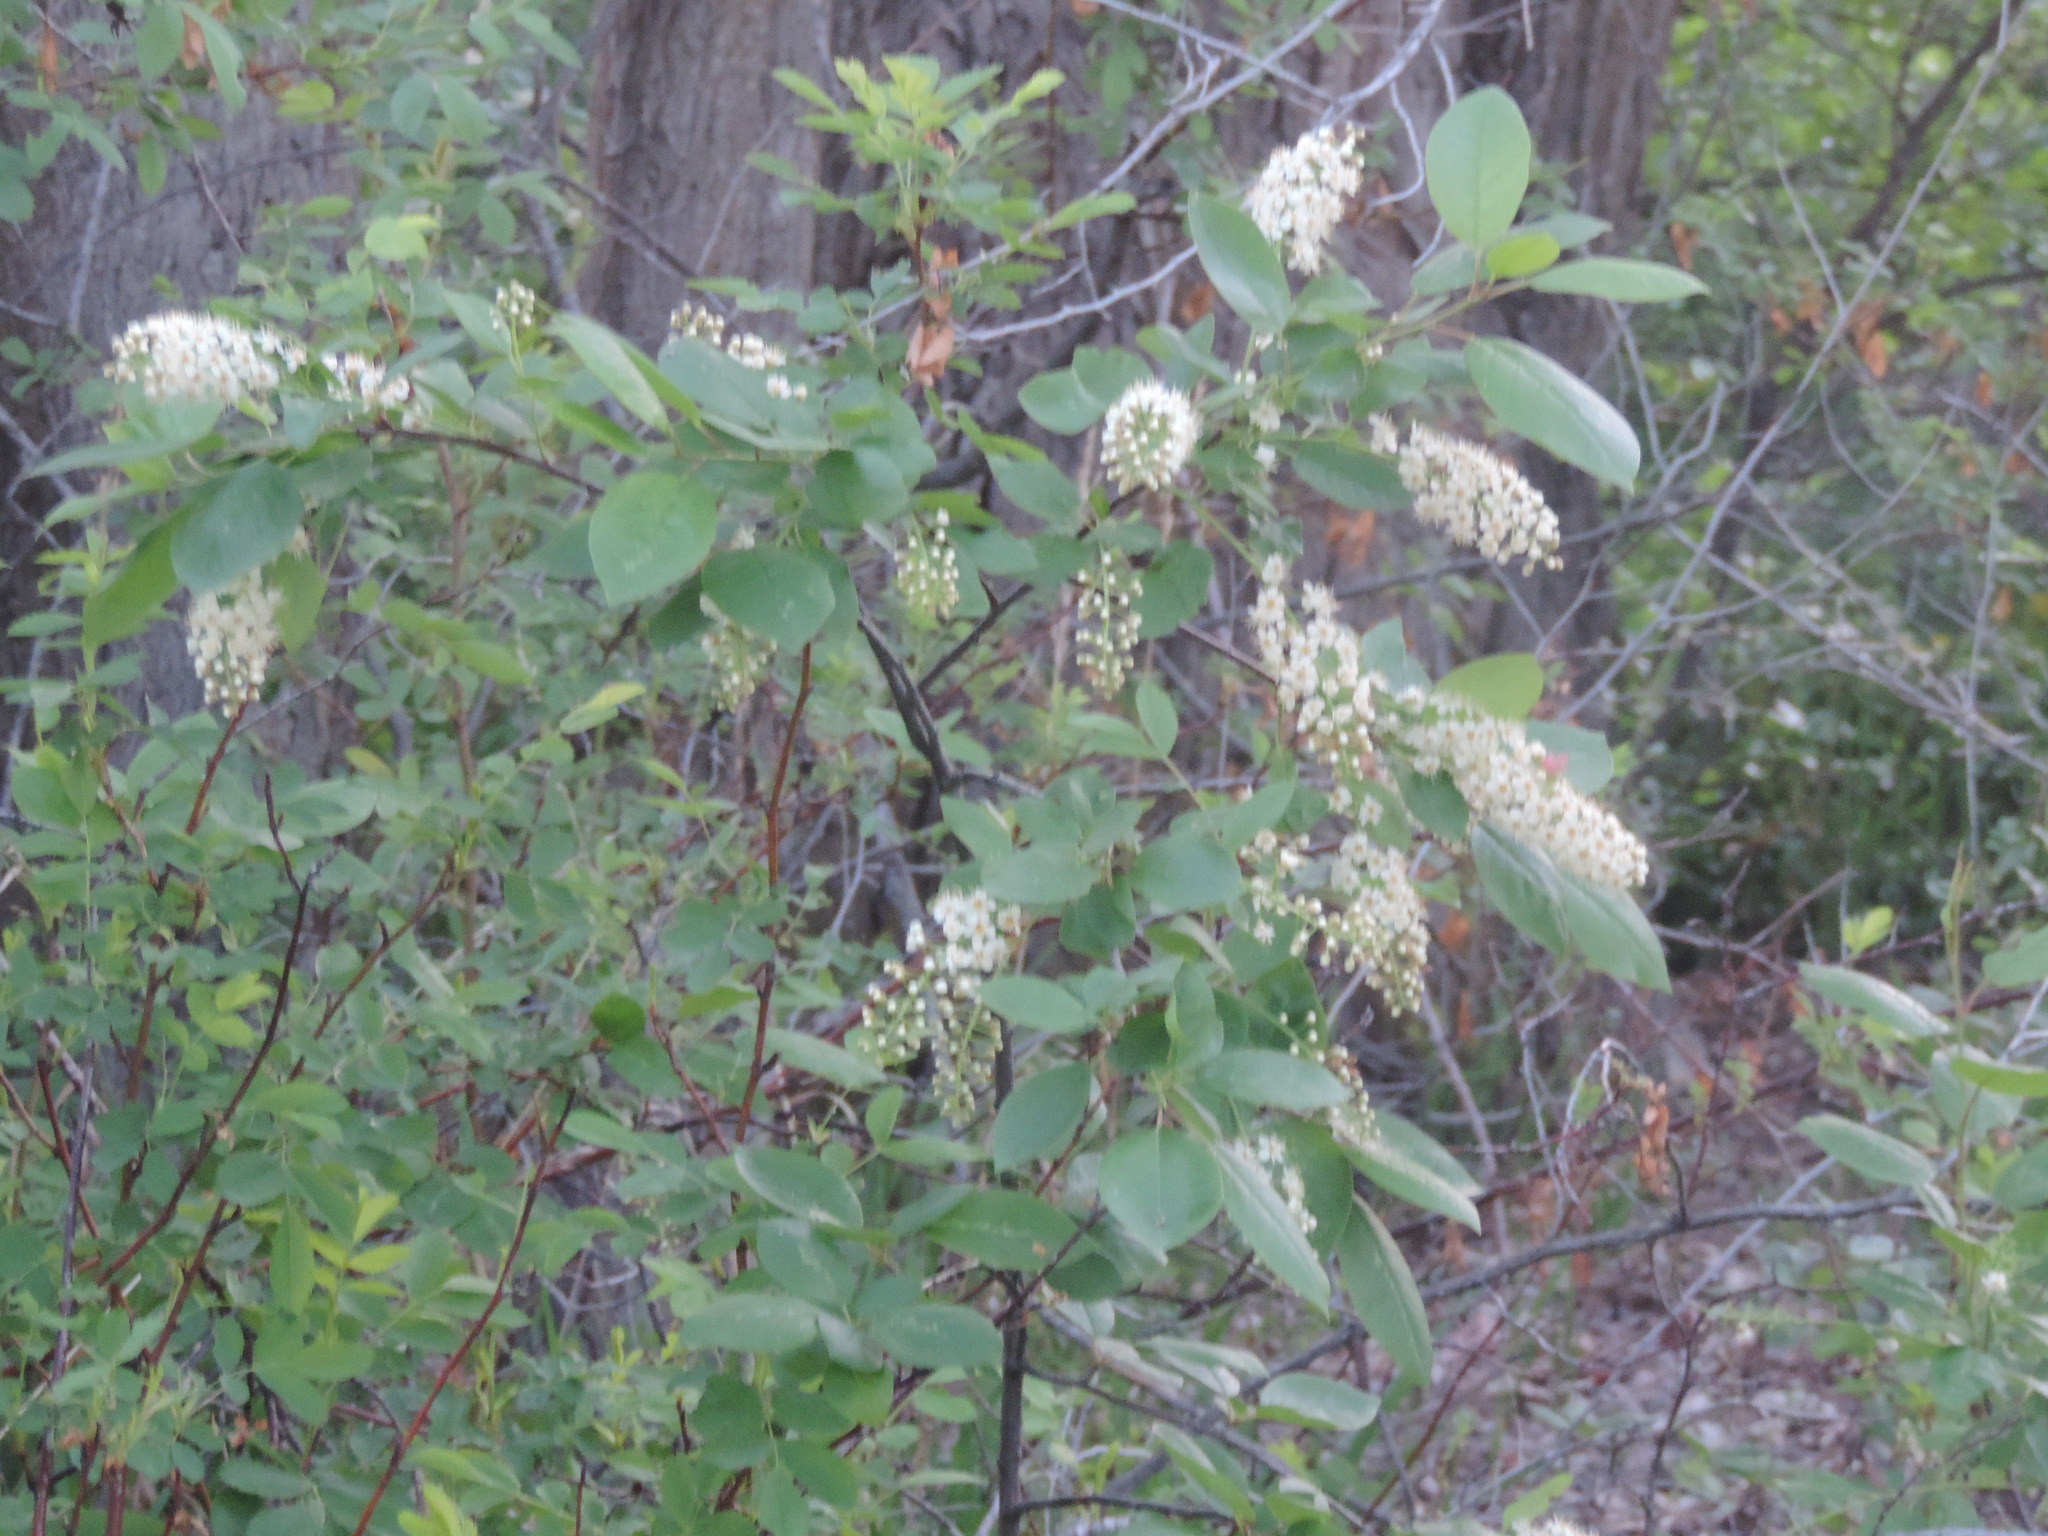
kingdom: Plantae
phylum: Tracheophyta
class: Magnoliopsida
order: Rosales
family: Rosaceae
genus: Prunus
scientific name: Prunus virginiana
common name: Chokecherry
